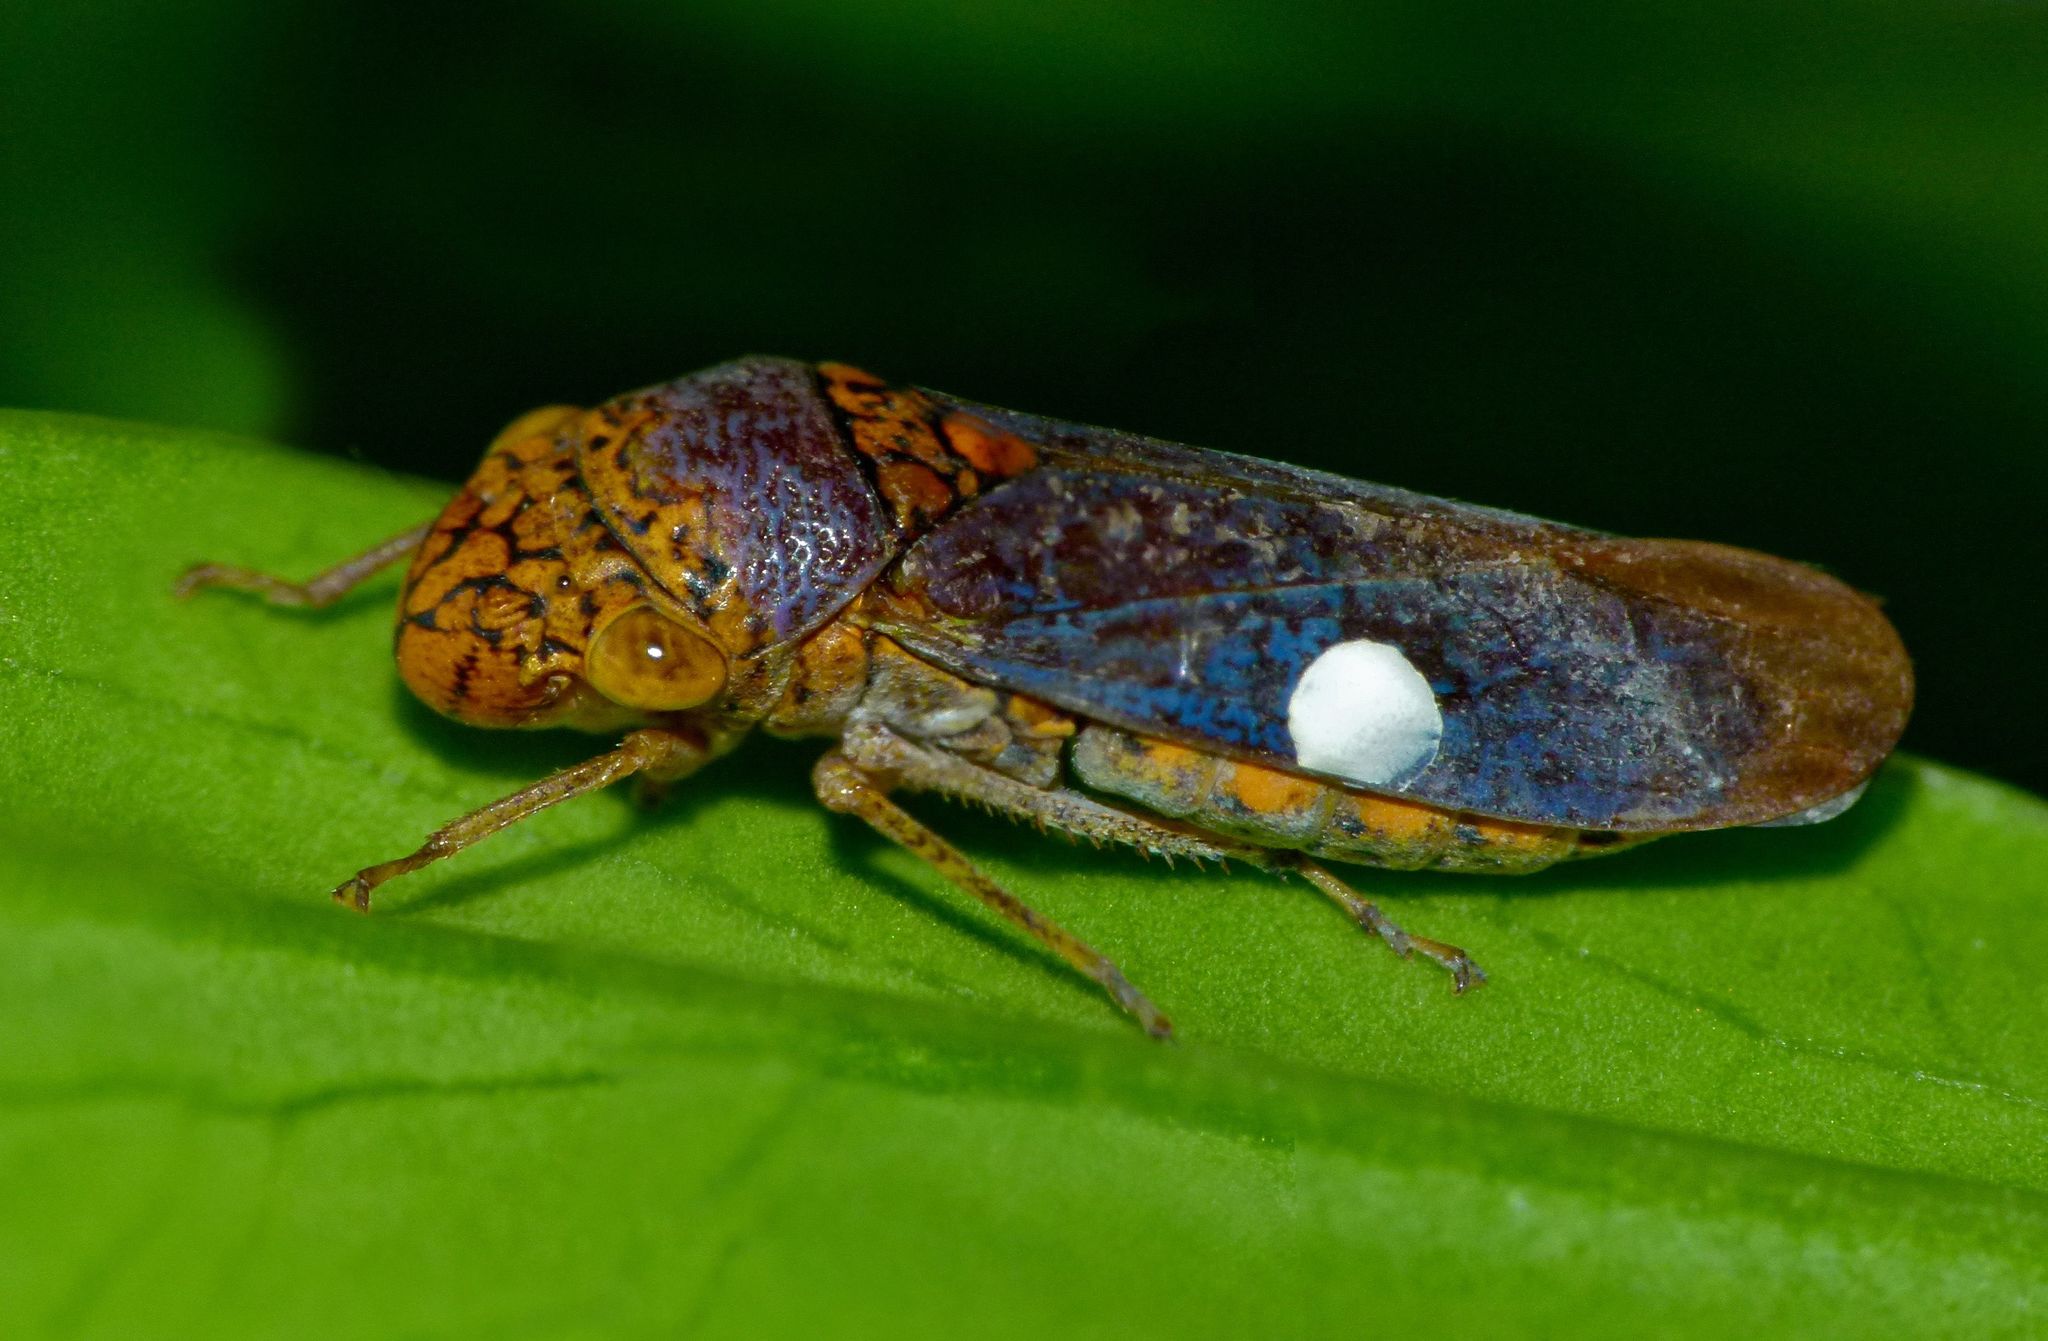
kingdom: Animalia
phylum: Arthropoda
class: Insecta
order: Hemiptera
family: Cicadellidae
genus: Oncometopia
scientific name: Oncometopia orbona
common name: Broad-headed sharpshooter
